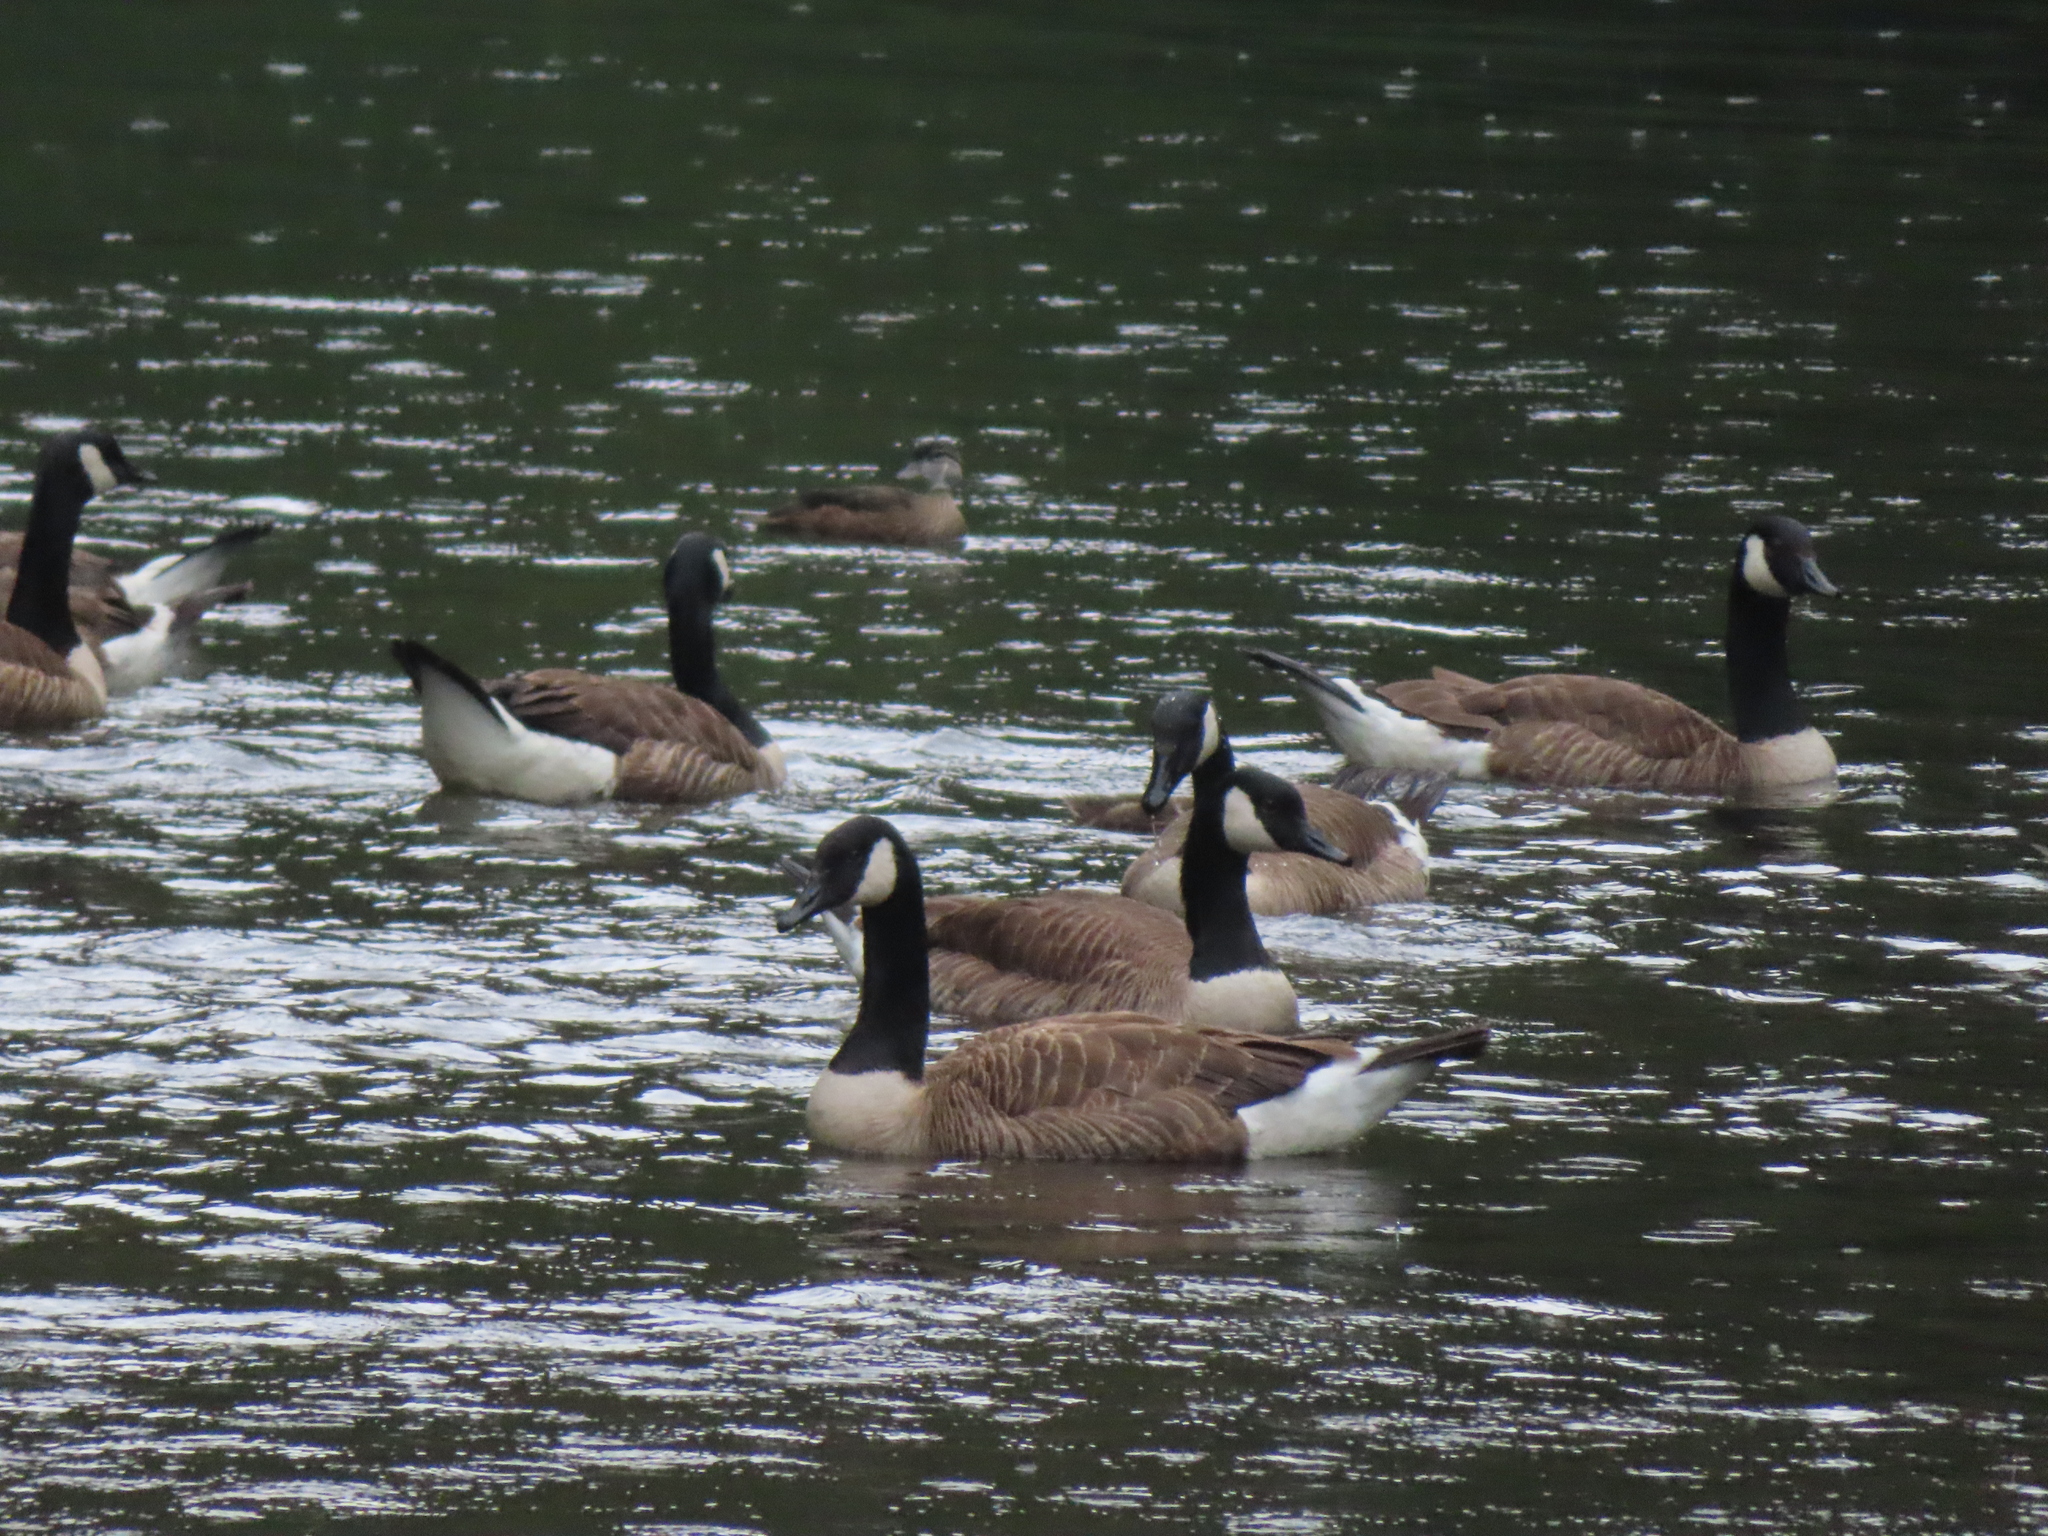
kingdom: Animalia
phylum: Chordata
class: Aves
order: Anseriformes
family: Anatidae
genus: Branta
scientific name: Branta canadensis
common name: Canada goose
